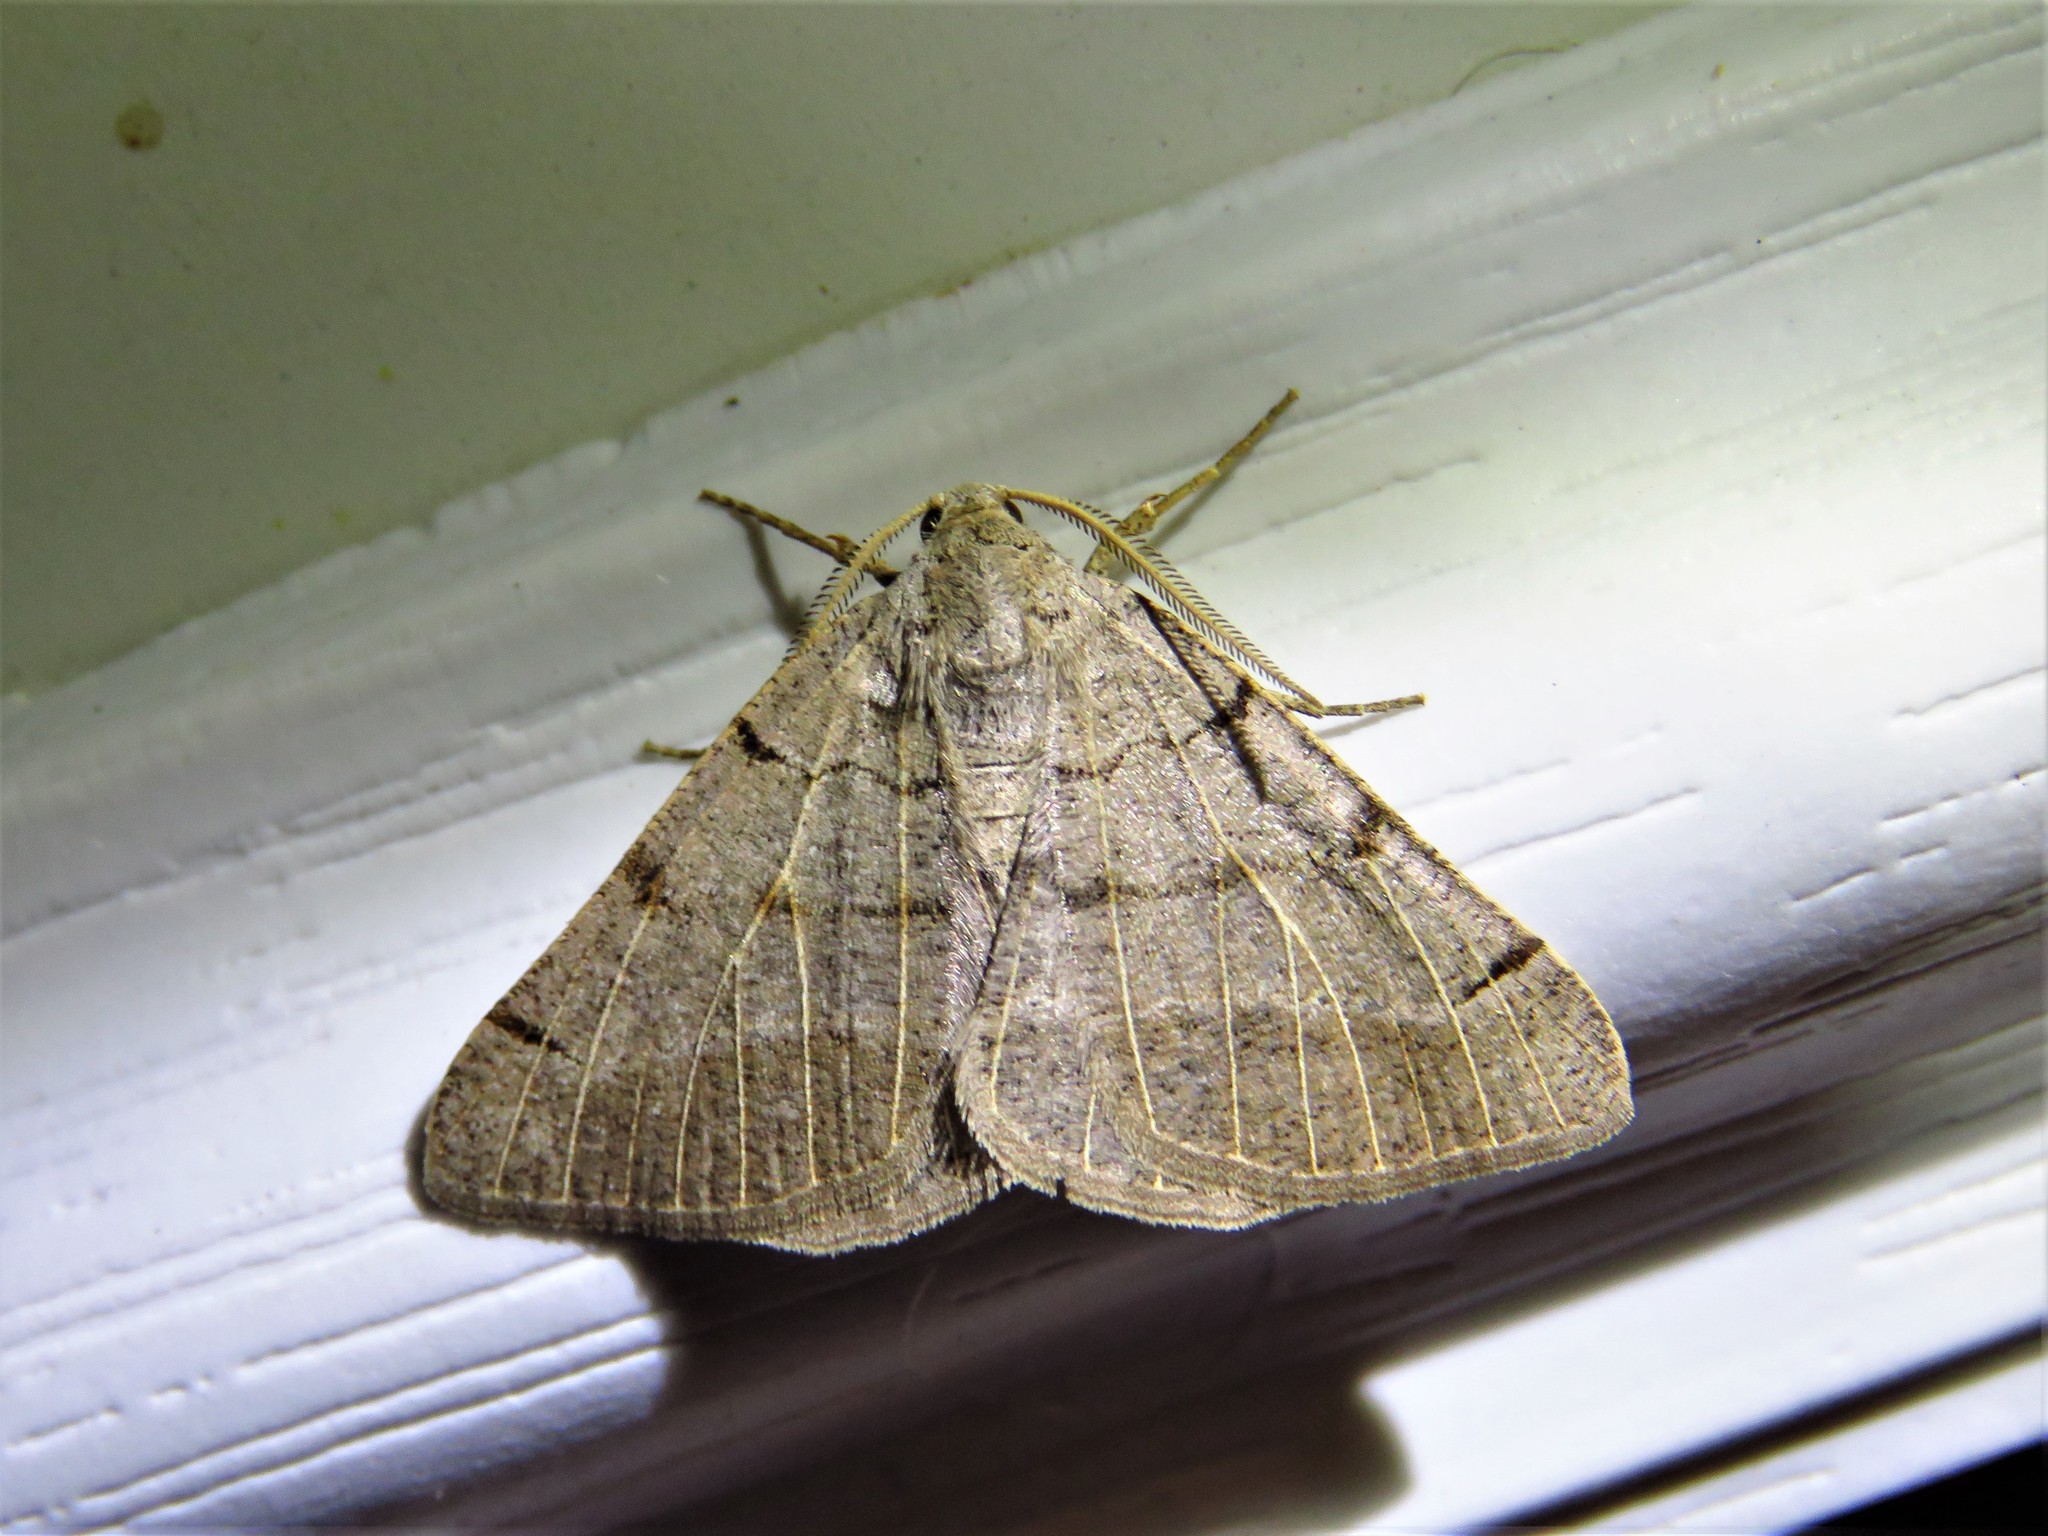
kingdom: Animalia
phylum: Arthropoda
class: Insecta
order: Lepidoptera
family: Geometridae
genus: Isturgia
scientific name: Isturgia dislocaria
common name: Pale-viened enconista
